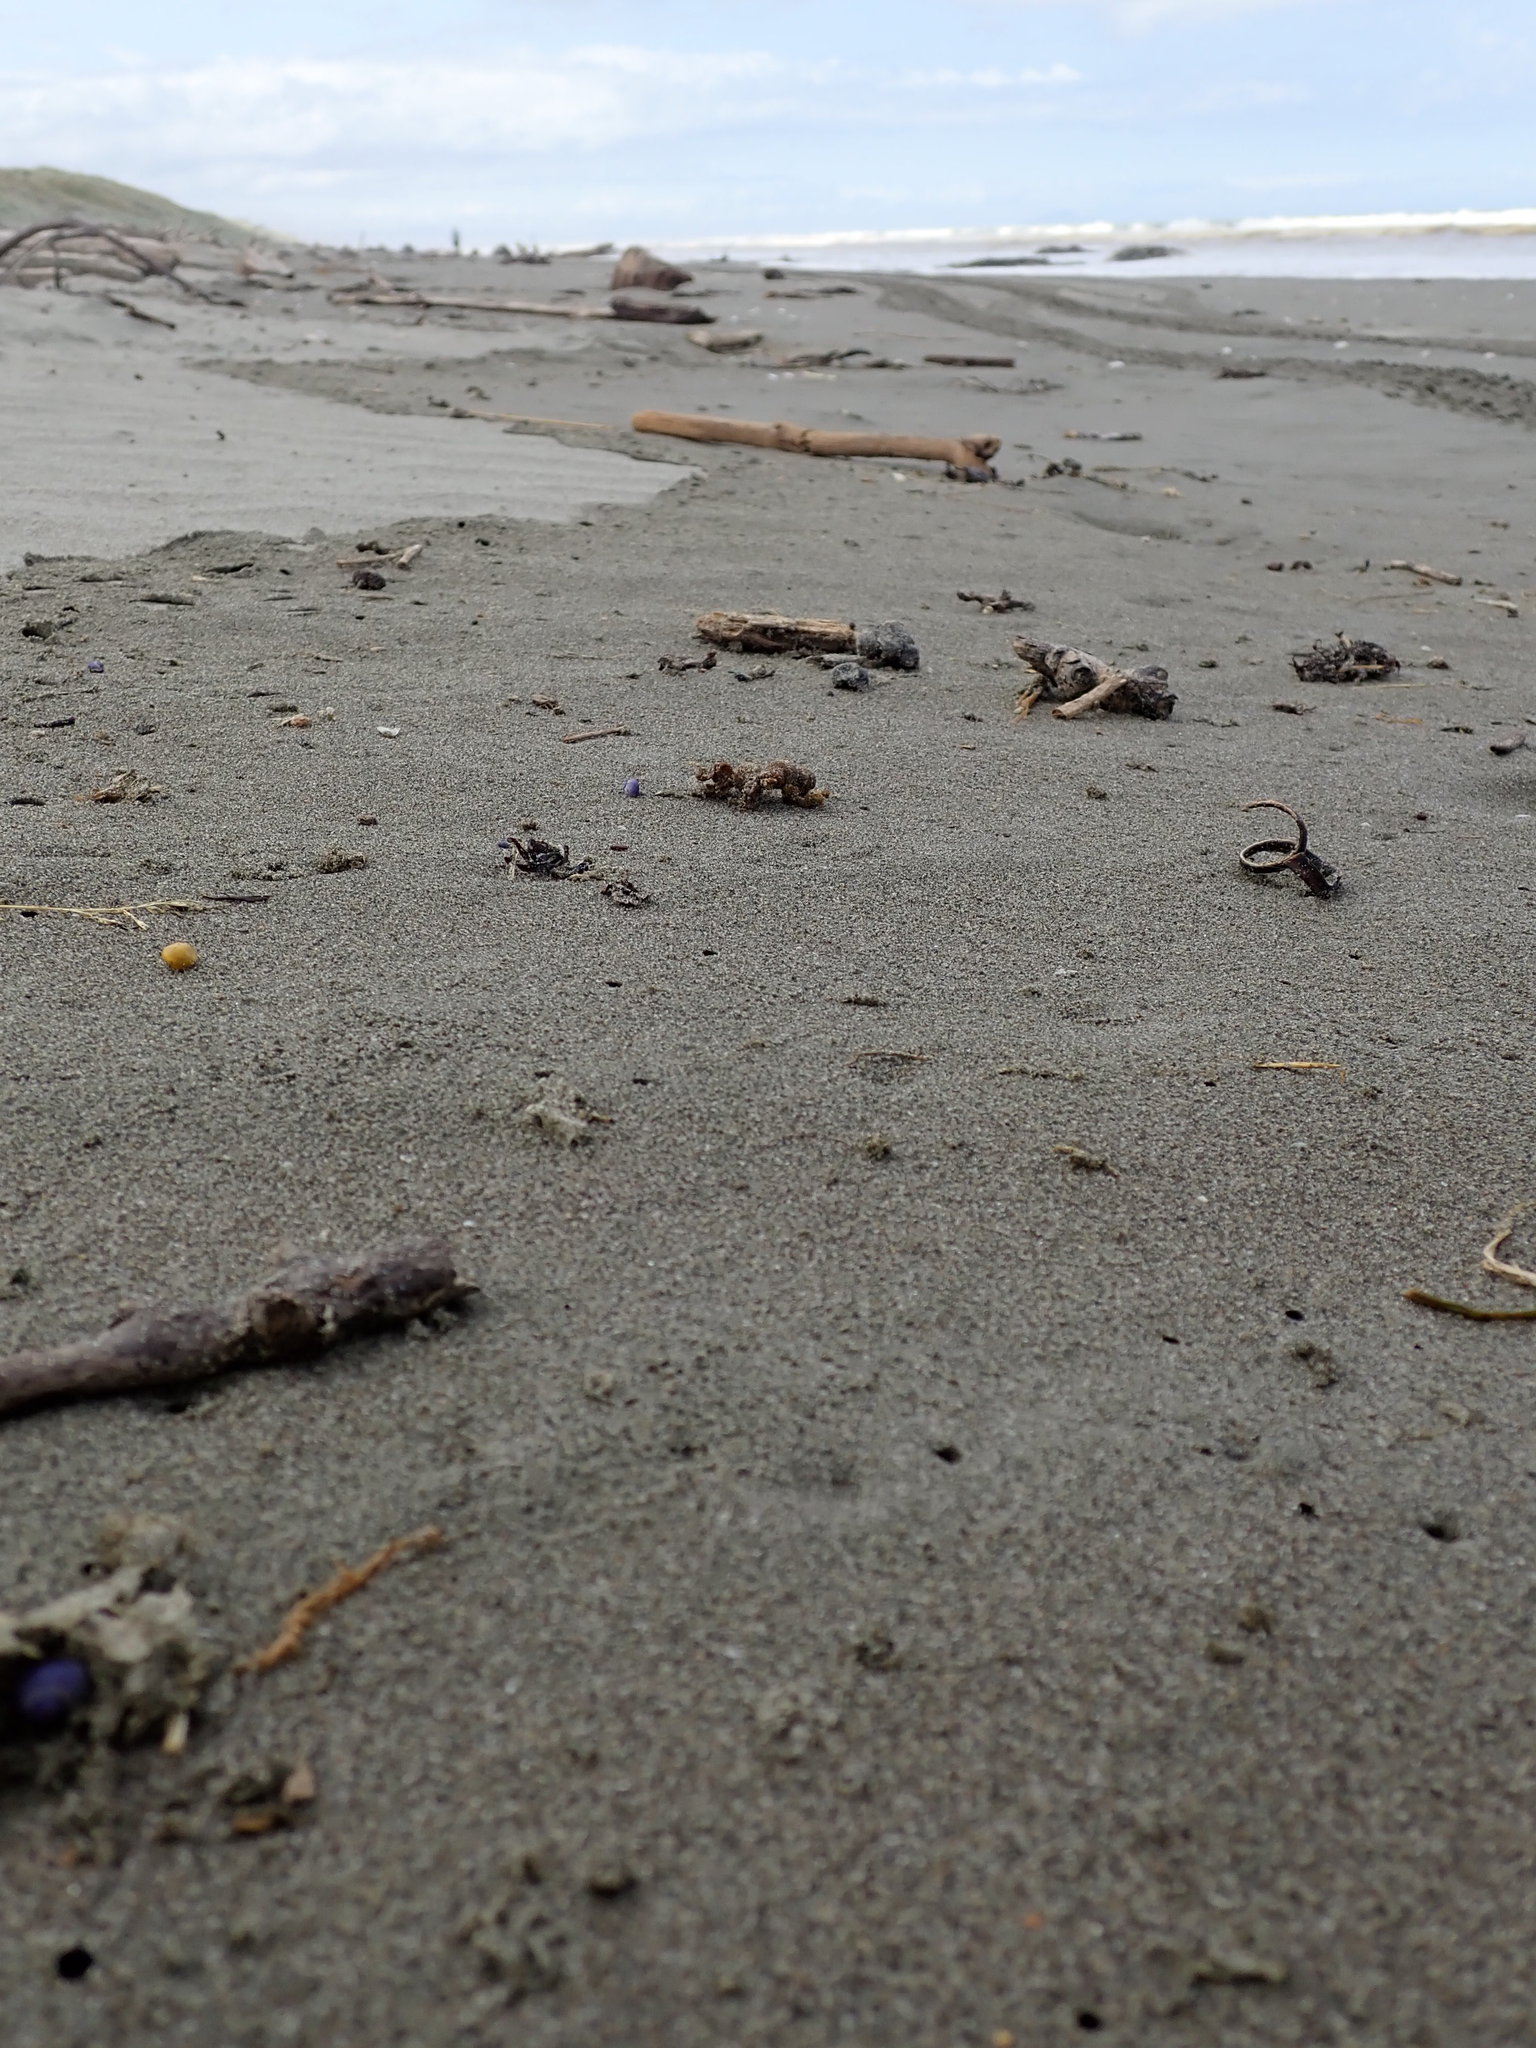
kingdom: Animalia
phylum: Mollusca
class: Gastropoda
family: Epitoniidae
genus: Janthina
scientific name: Janthina exigua
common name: Dwarf janthina
